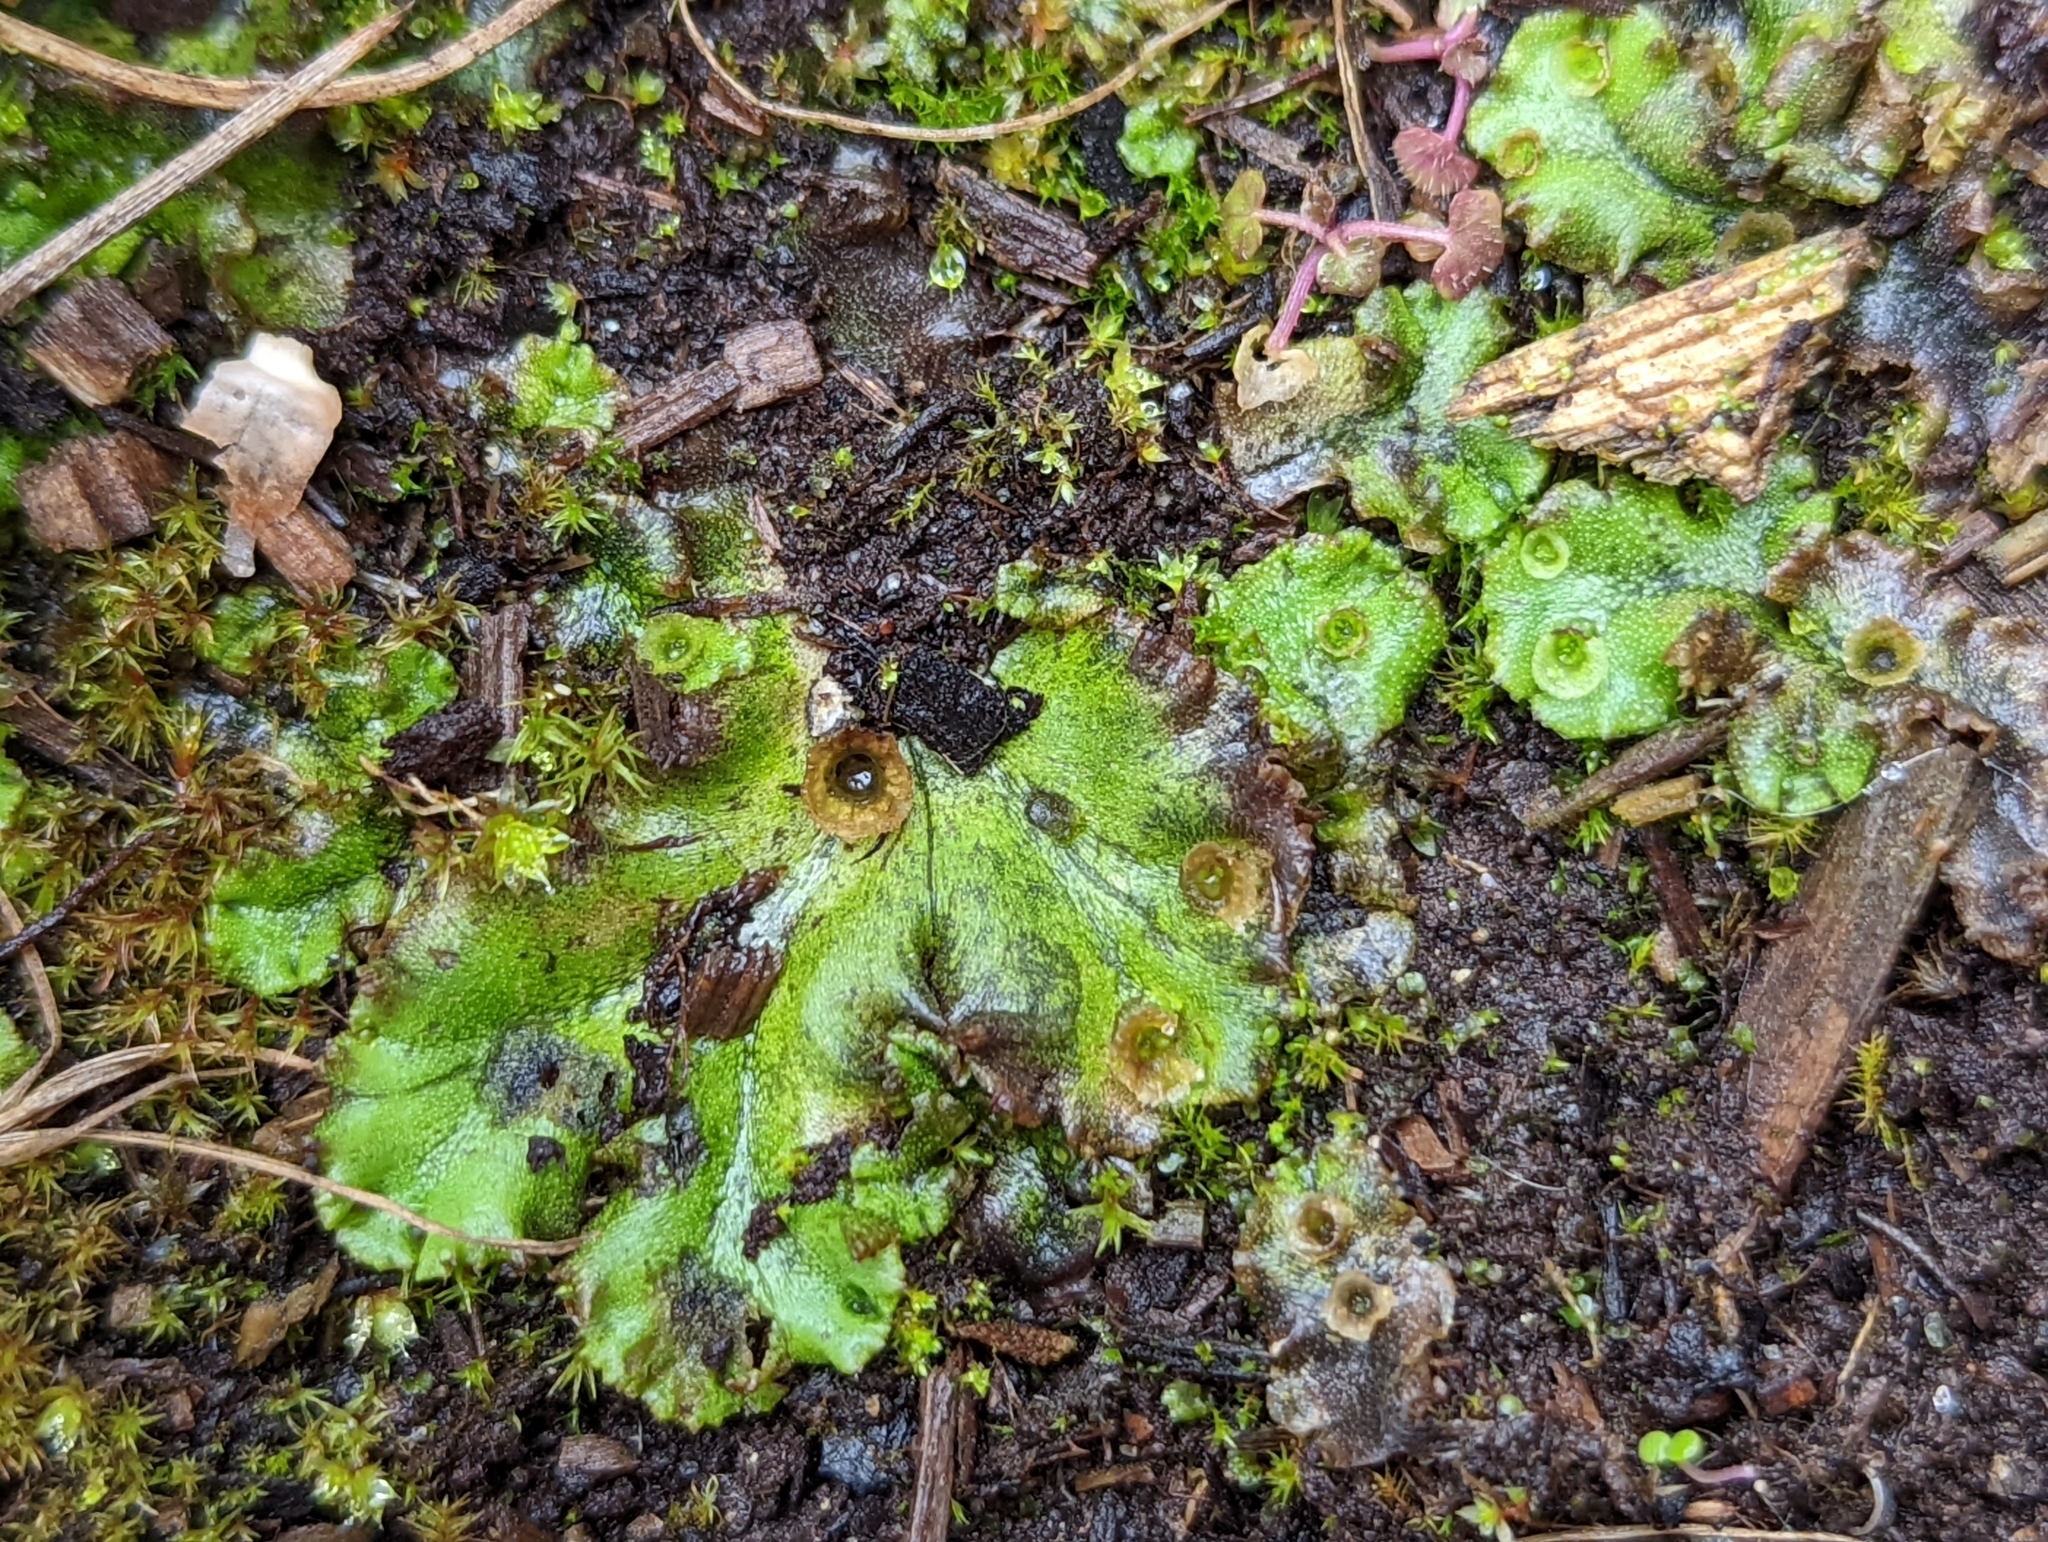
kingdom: Plantae
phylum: Marchantiophyta
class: Marchantiopsida
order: Marchantiales
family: Marchantiaceae
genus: Marchantia
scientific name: Marchantia polymorpha
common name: Common liverwort
